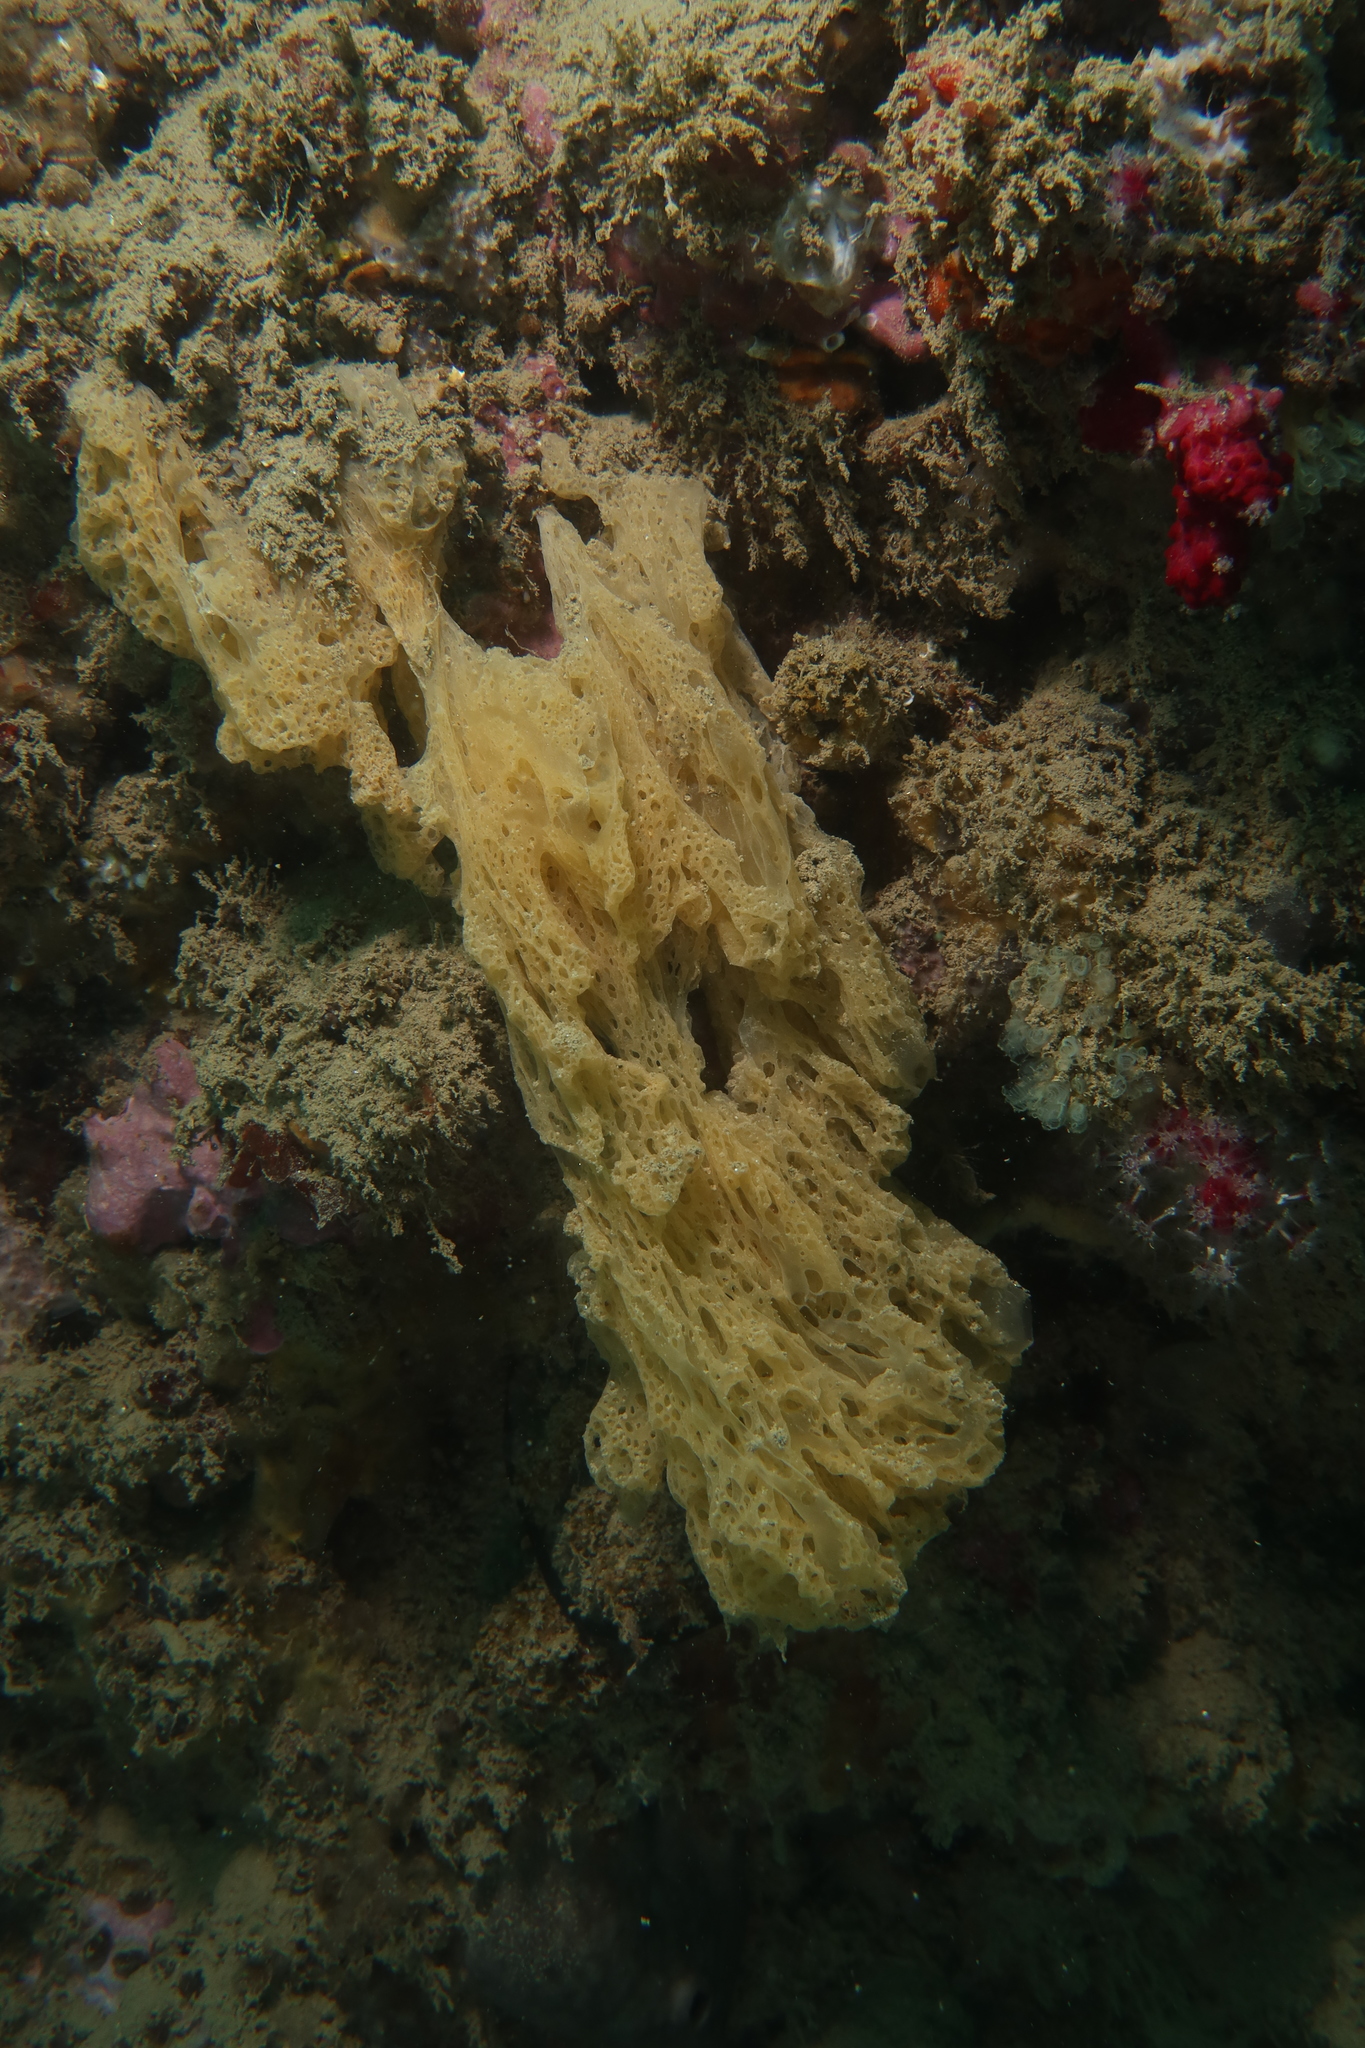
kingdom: Animalia
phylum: Porifera
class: Calcarea
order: Clathrinida
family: Clathrinidae
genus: Borojevia
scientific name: Borojevia cerebrum
